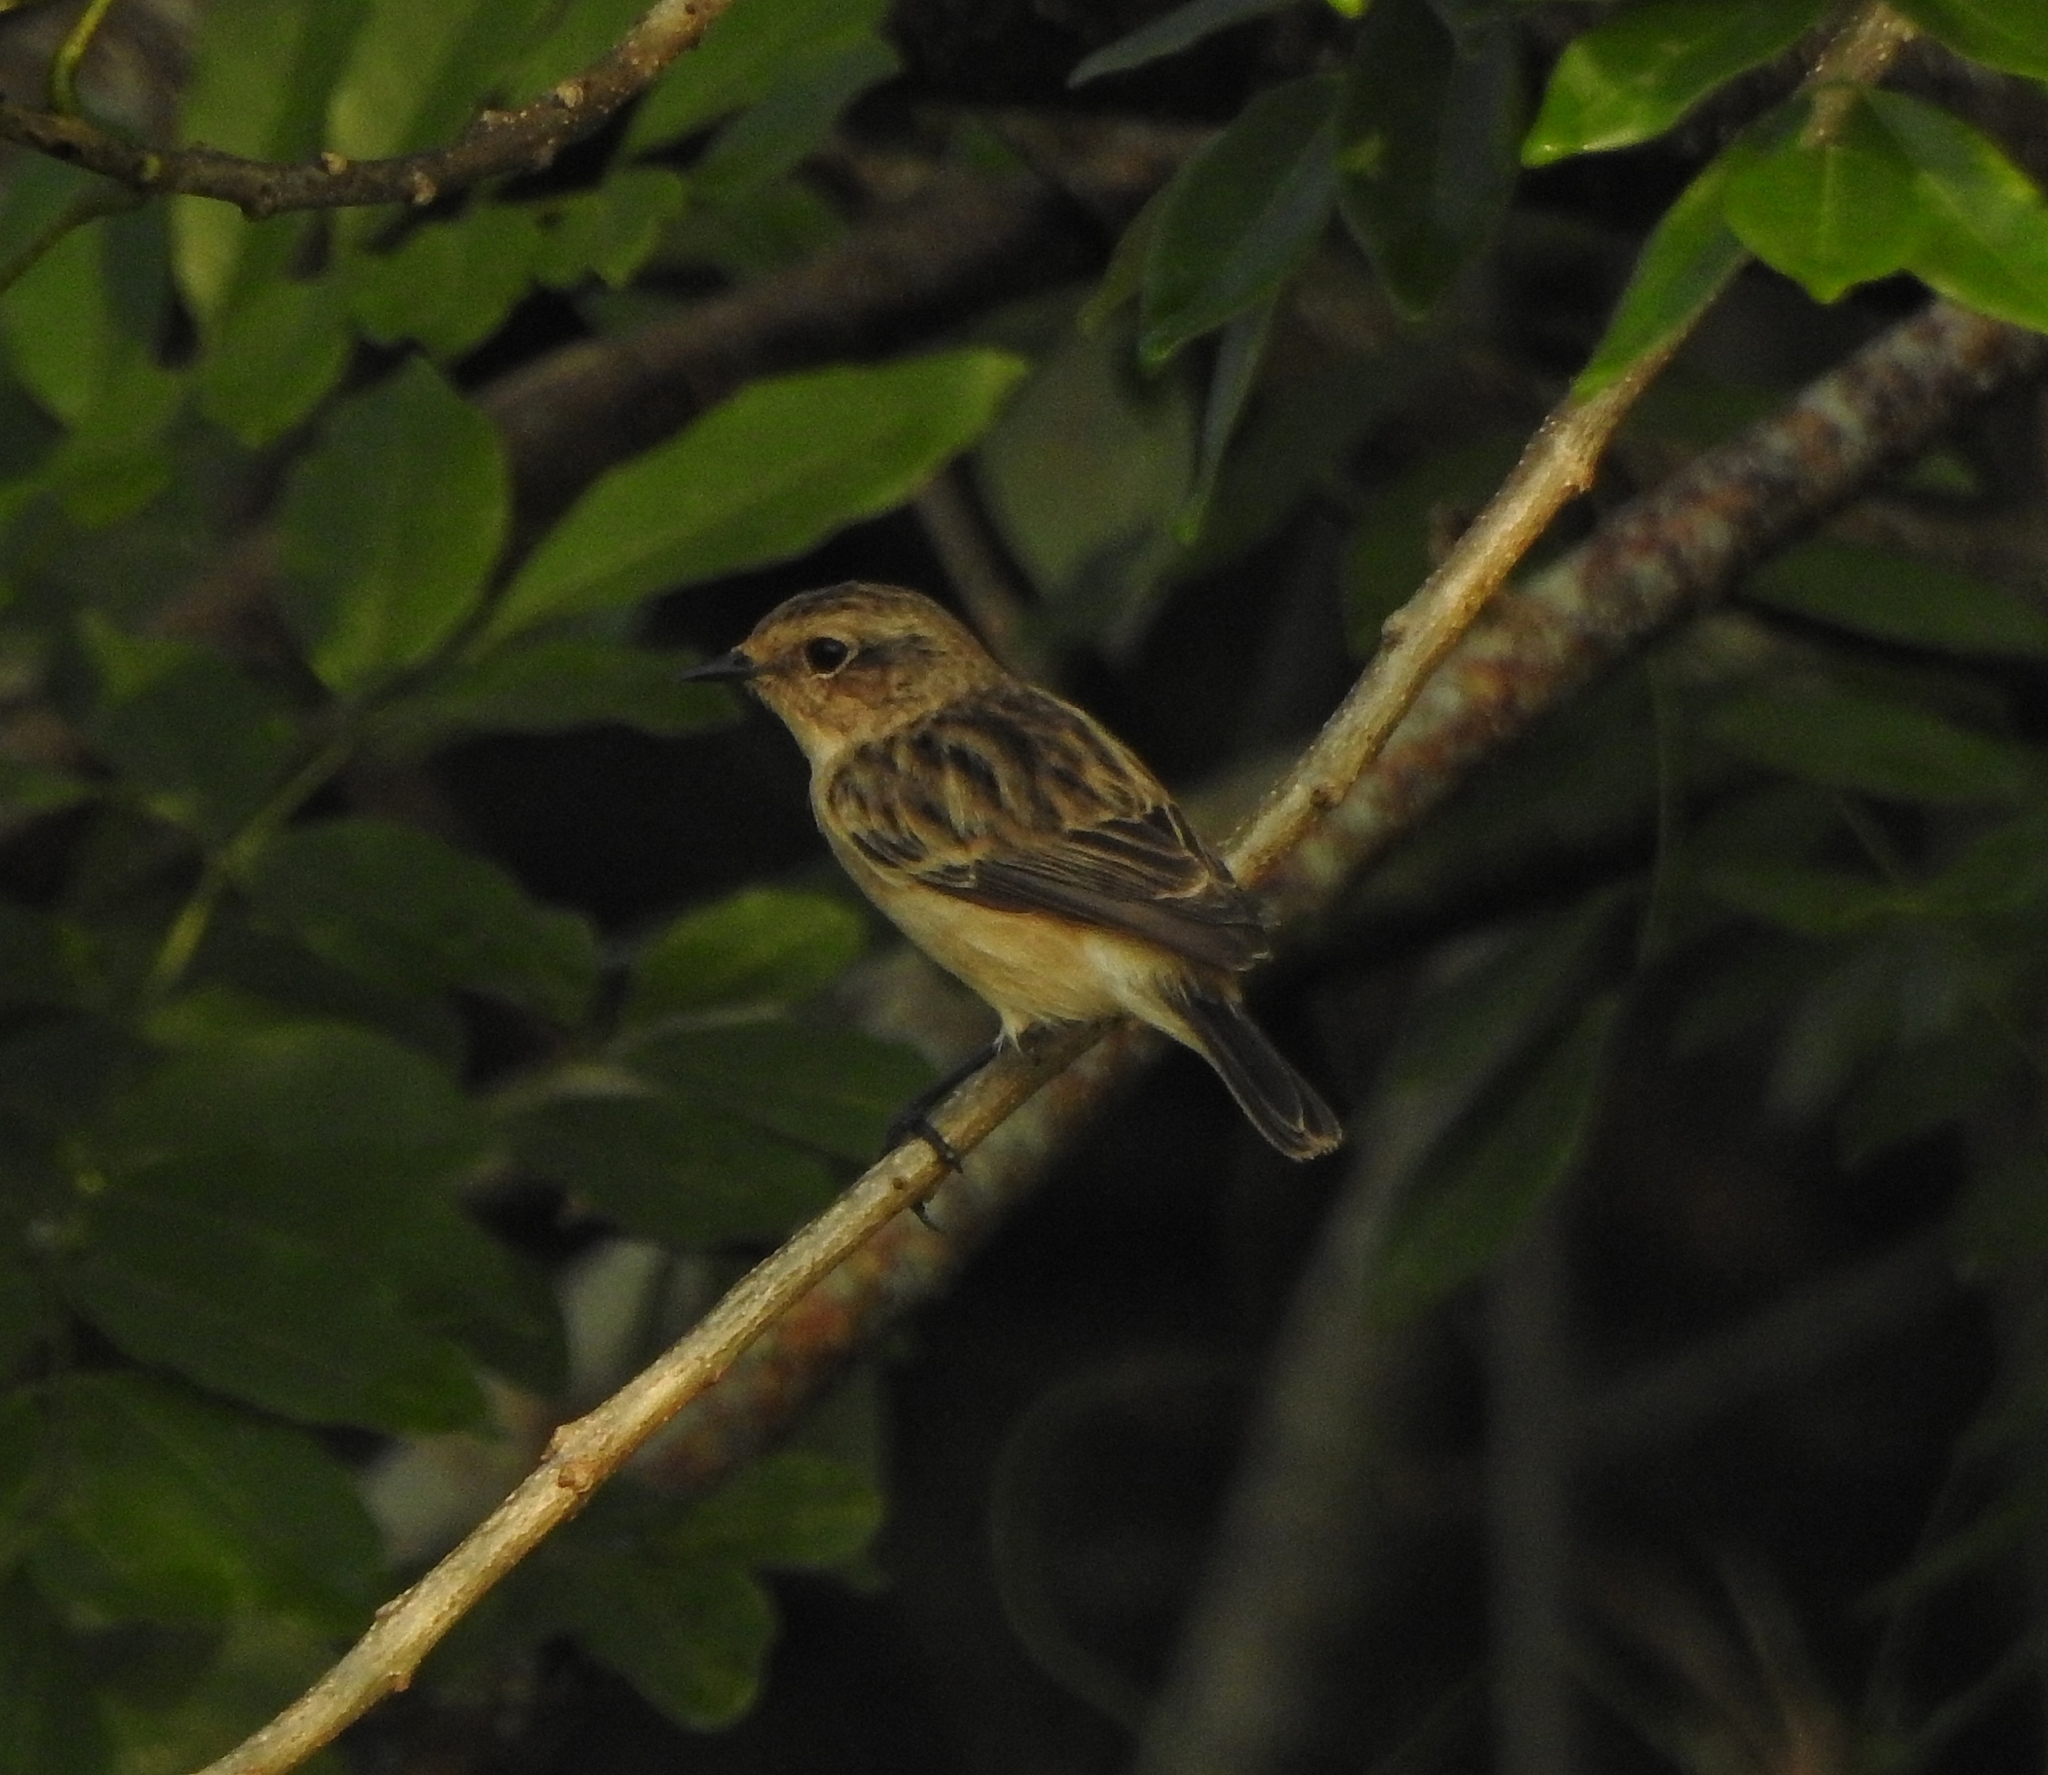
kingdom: Animalia
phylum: Chordata
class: Aves
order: Passeriformes
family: Muscicapidae
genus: Saxicola
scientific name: Saxicola maurus
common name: Siberian stonechat
